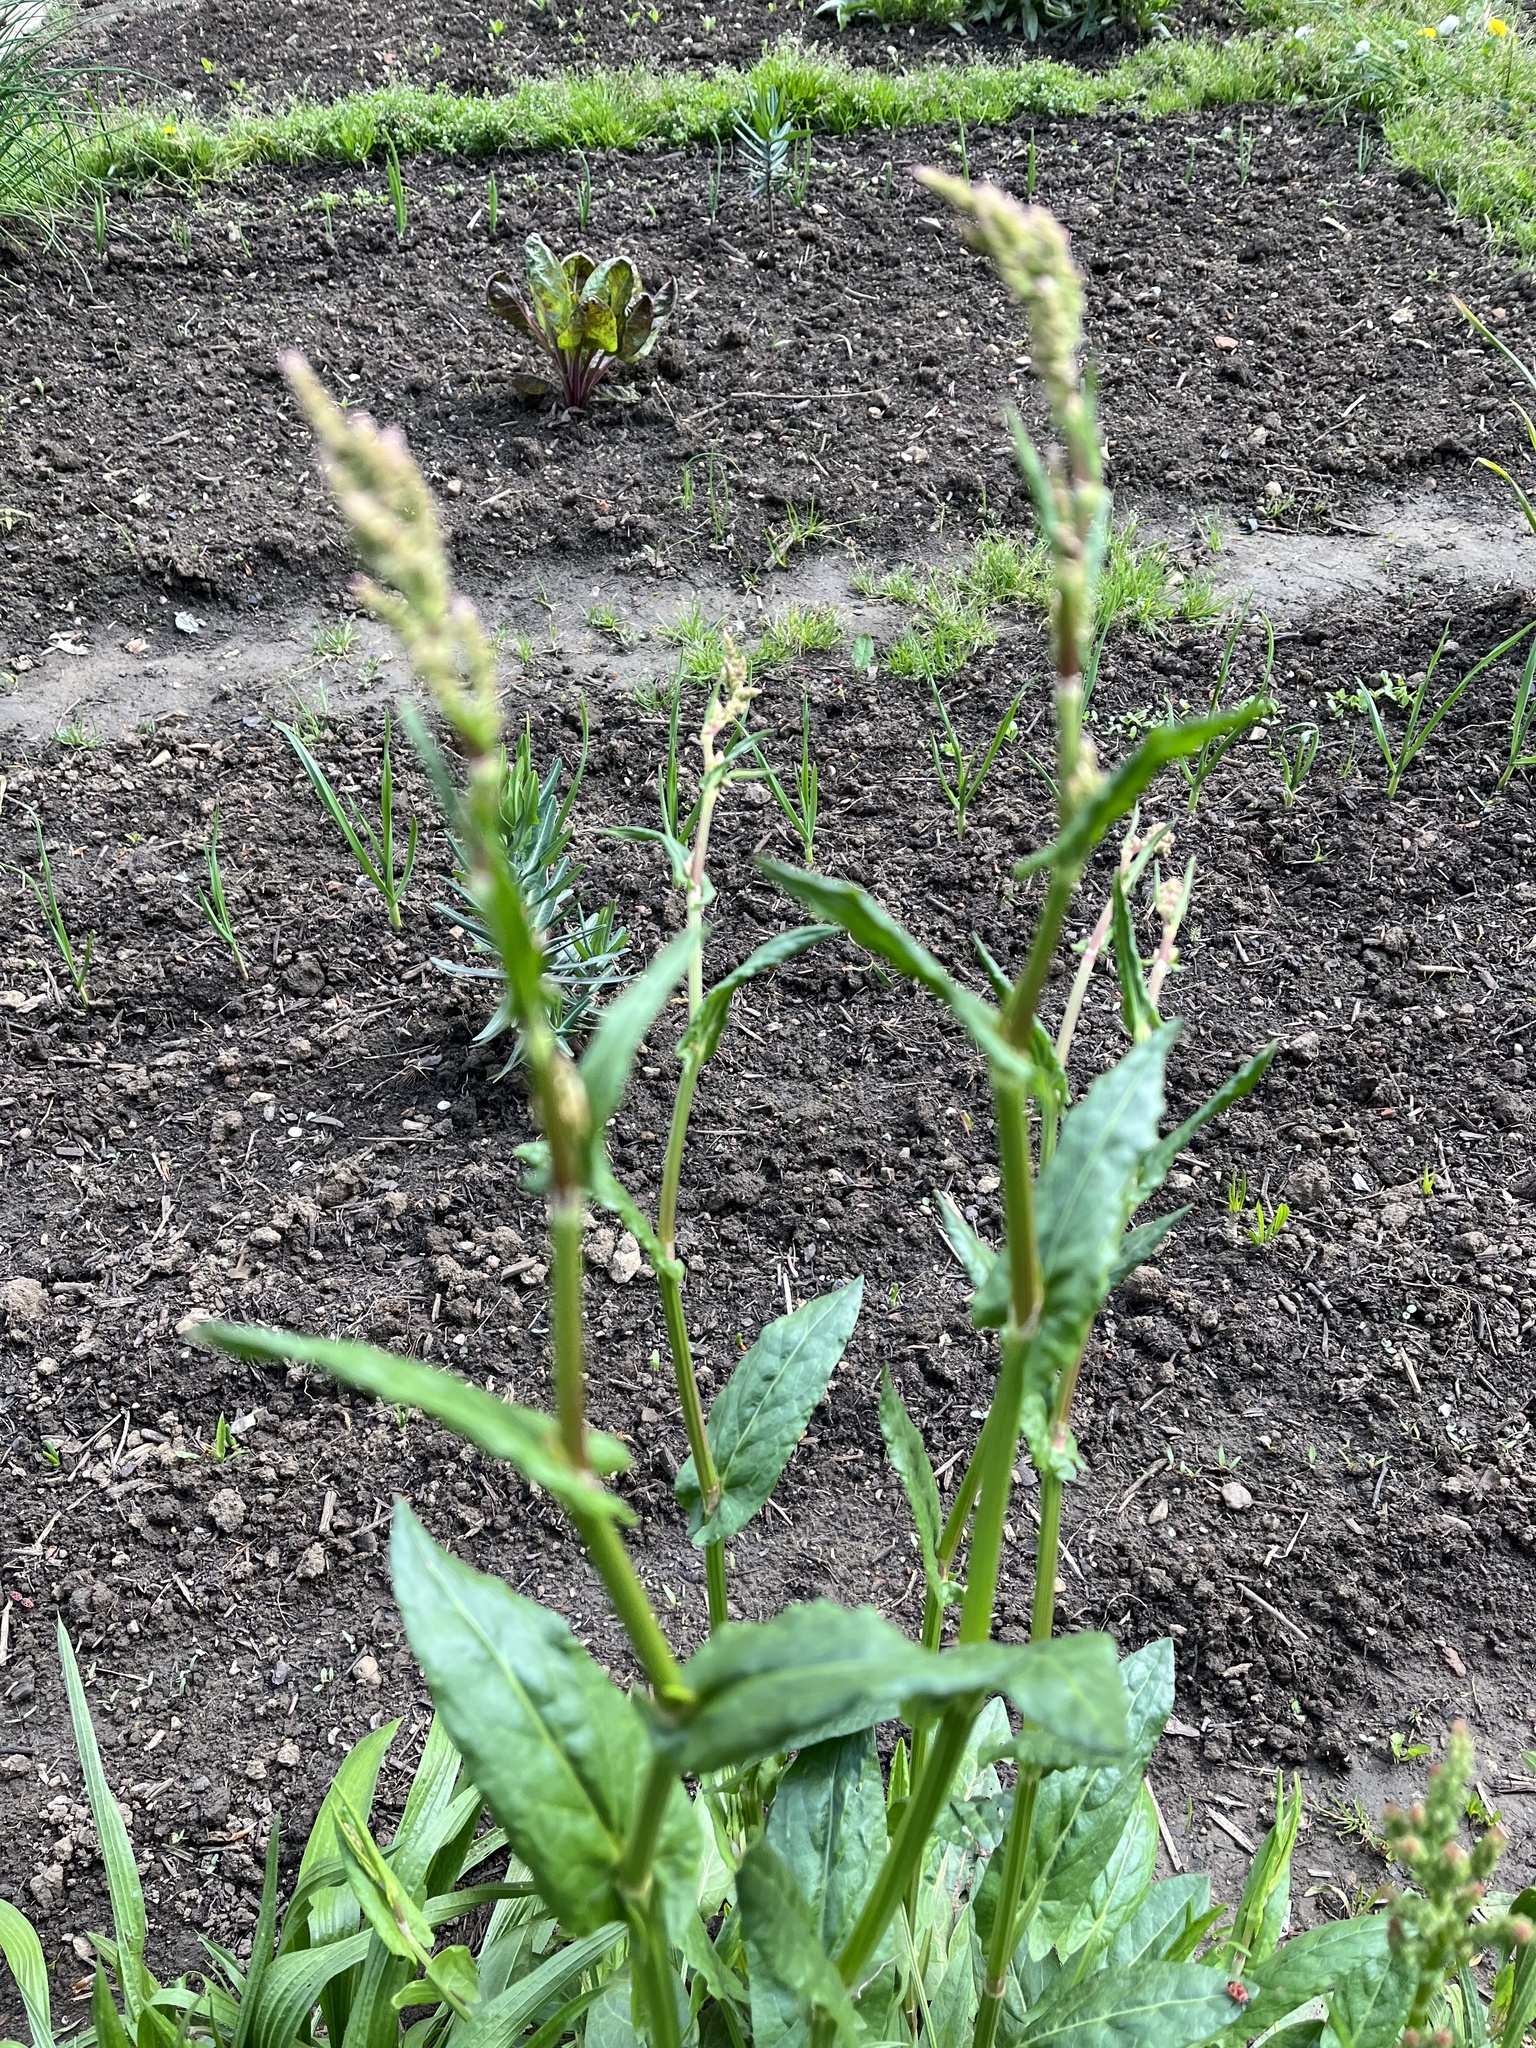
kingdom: Plantae
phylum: Tracheophyta
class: Magnoliopsida
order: Caryophyllales
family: Polygonaceae
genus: Rumex
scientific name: Rumex acetosa
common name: Garden sorrel
